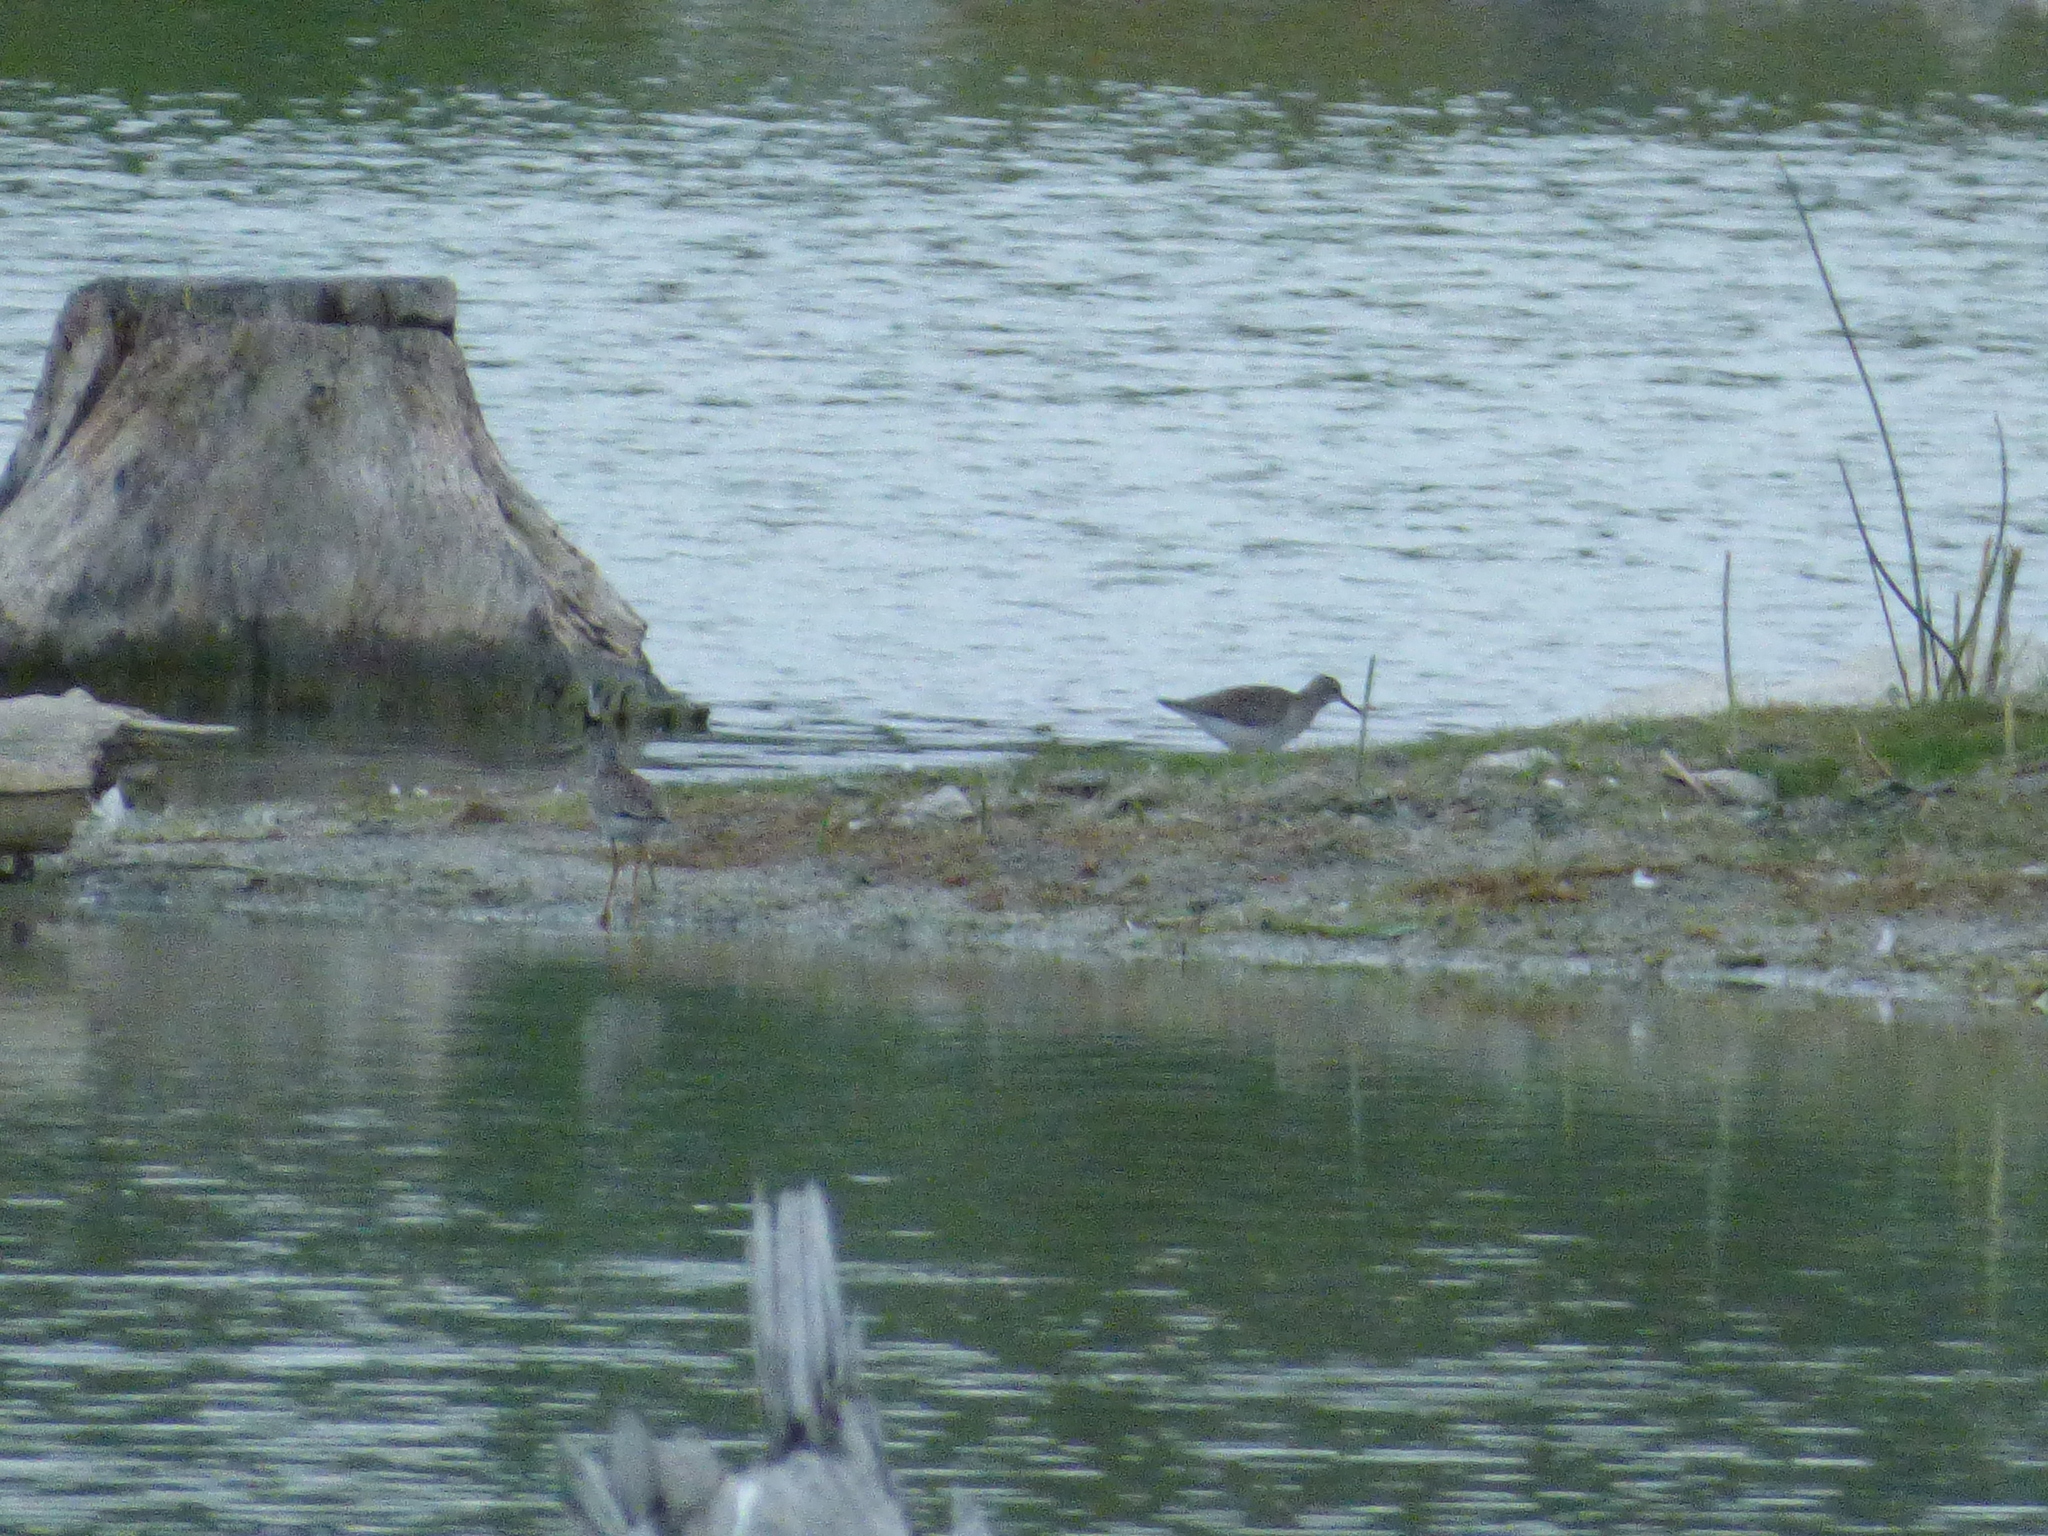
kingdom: Animalia
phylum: Chordata
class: Aves
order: Charadriiformes
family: Scolopacidae
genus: Tringa
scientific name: Tringa flavipes
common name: Lesser yellowlegs
